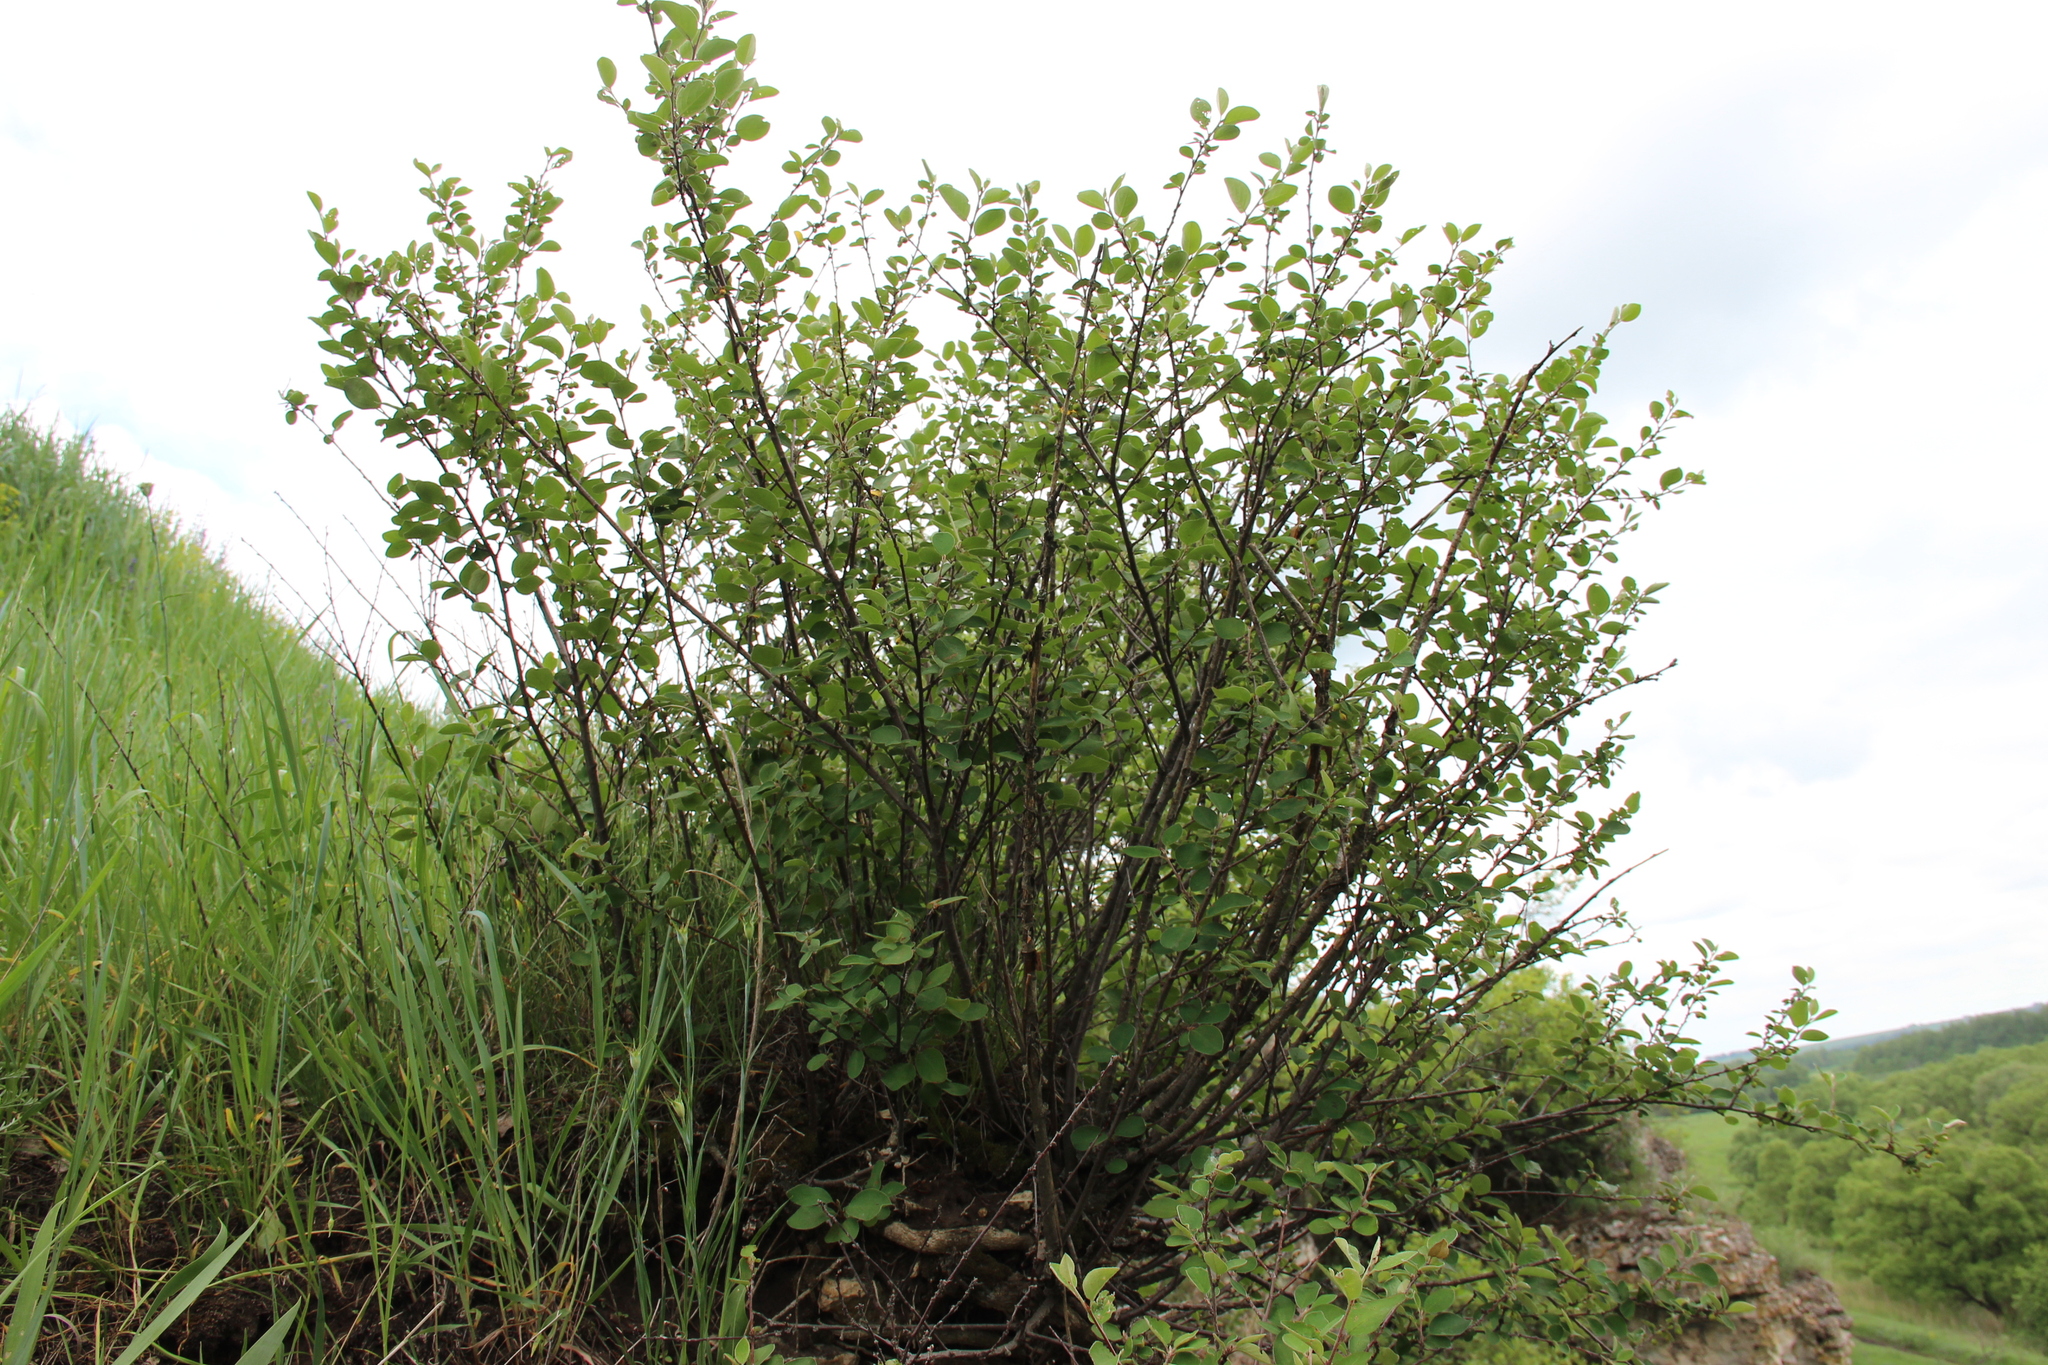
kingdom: Plantae
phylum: Tracheophyta
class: Magnoliopsida
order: Rosales
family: Rosaceae
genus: Cotoneaster
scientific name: Cotoneaster alaunicus
